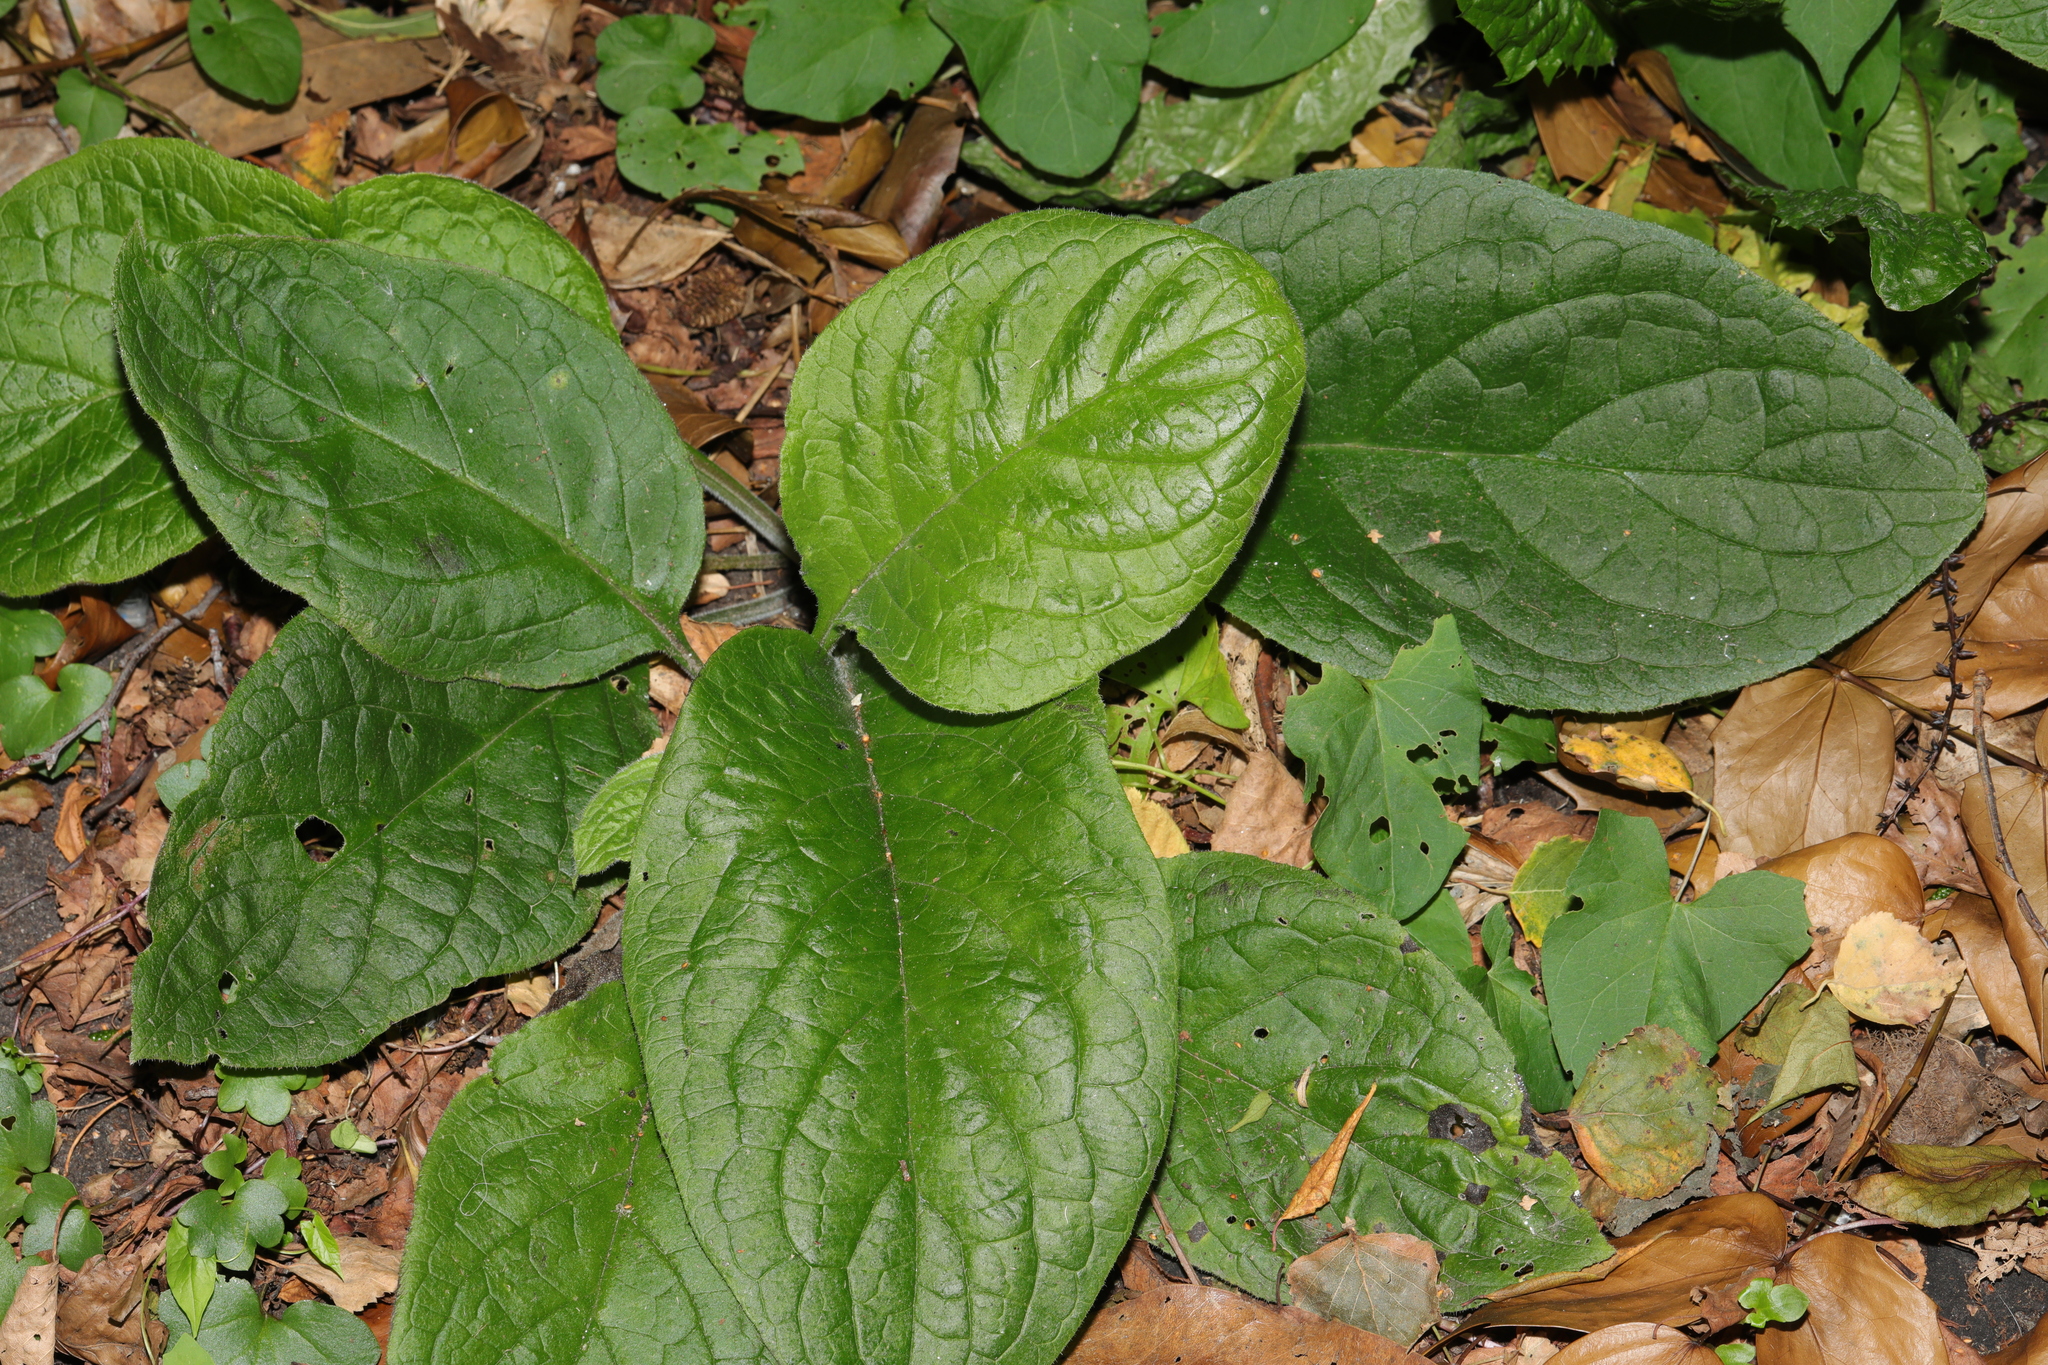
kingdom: Plantae
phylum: Tracheophyta
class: Magnoliopsida
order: Boraginales
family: Boraginaceae
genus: Pentaglottis
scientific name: Pentaglottis sempervirens
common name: Green alkanet
